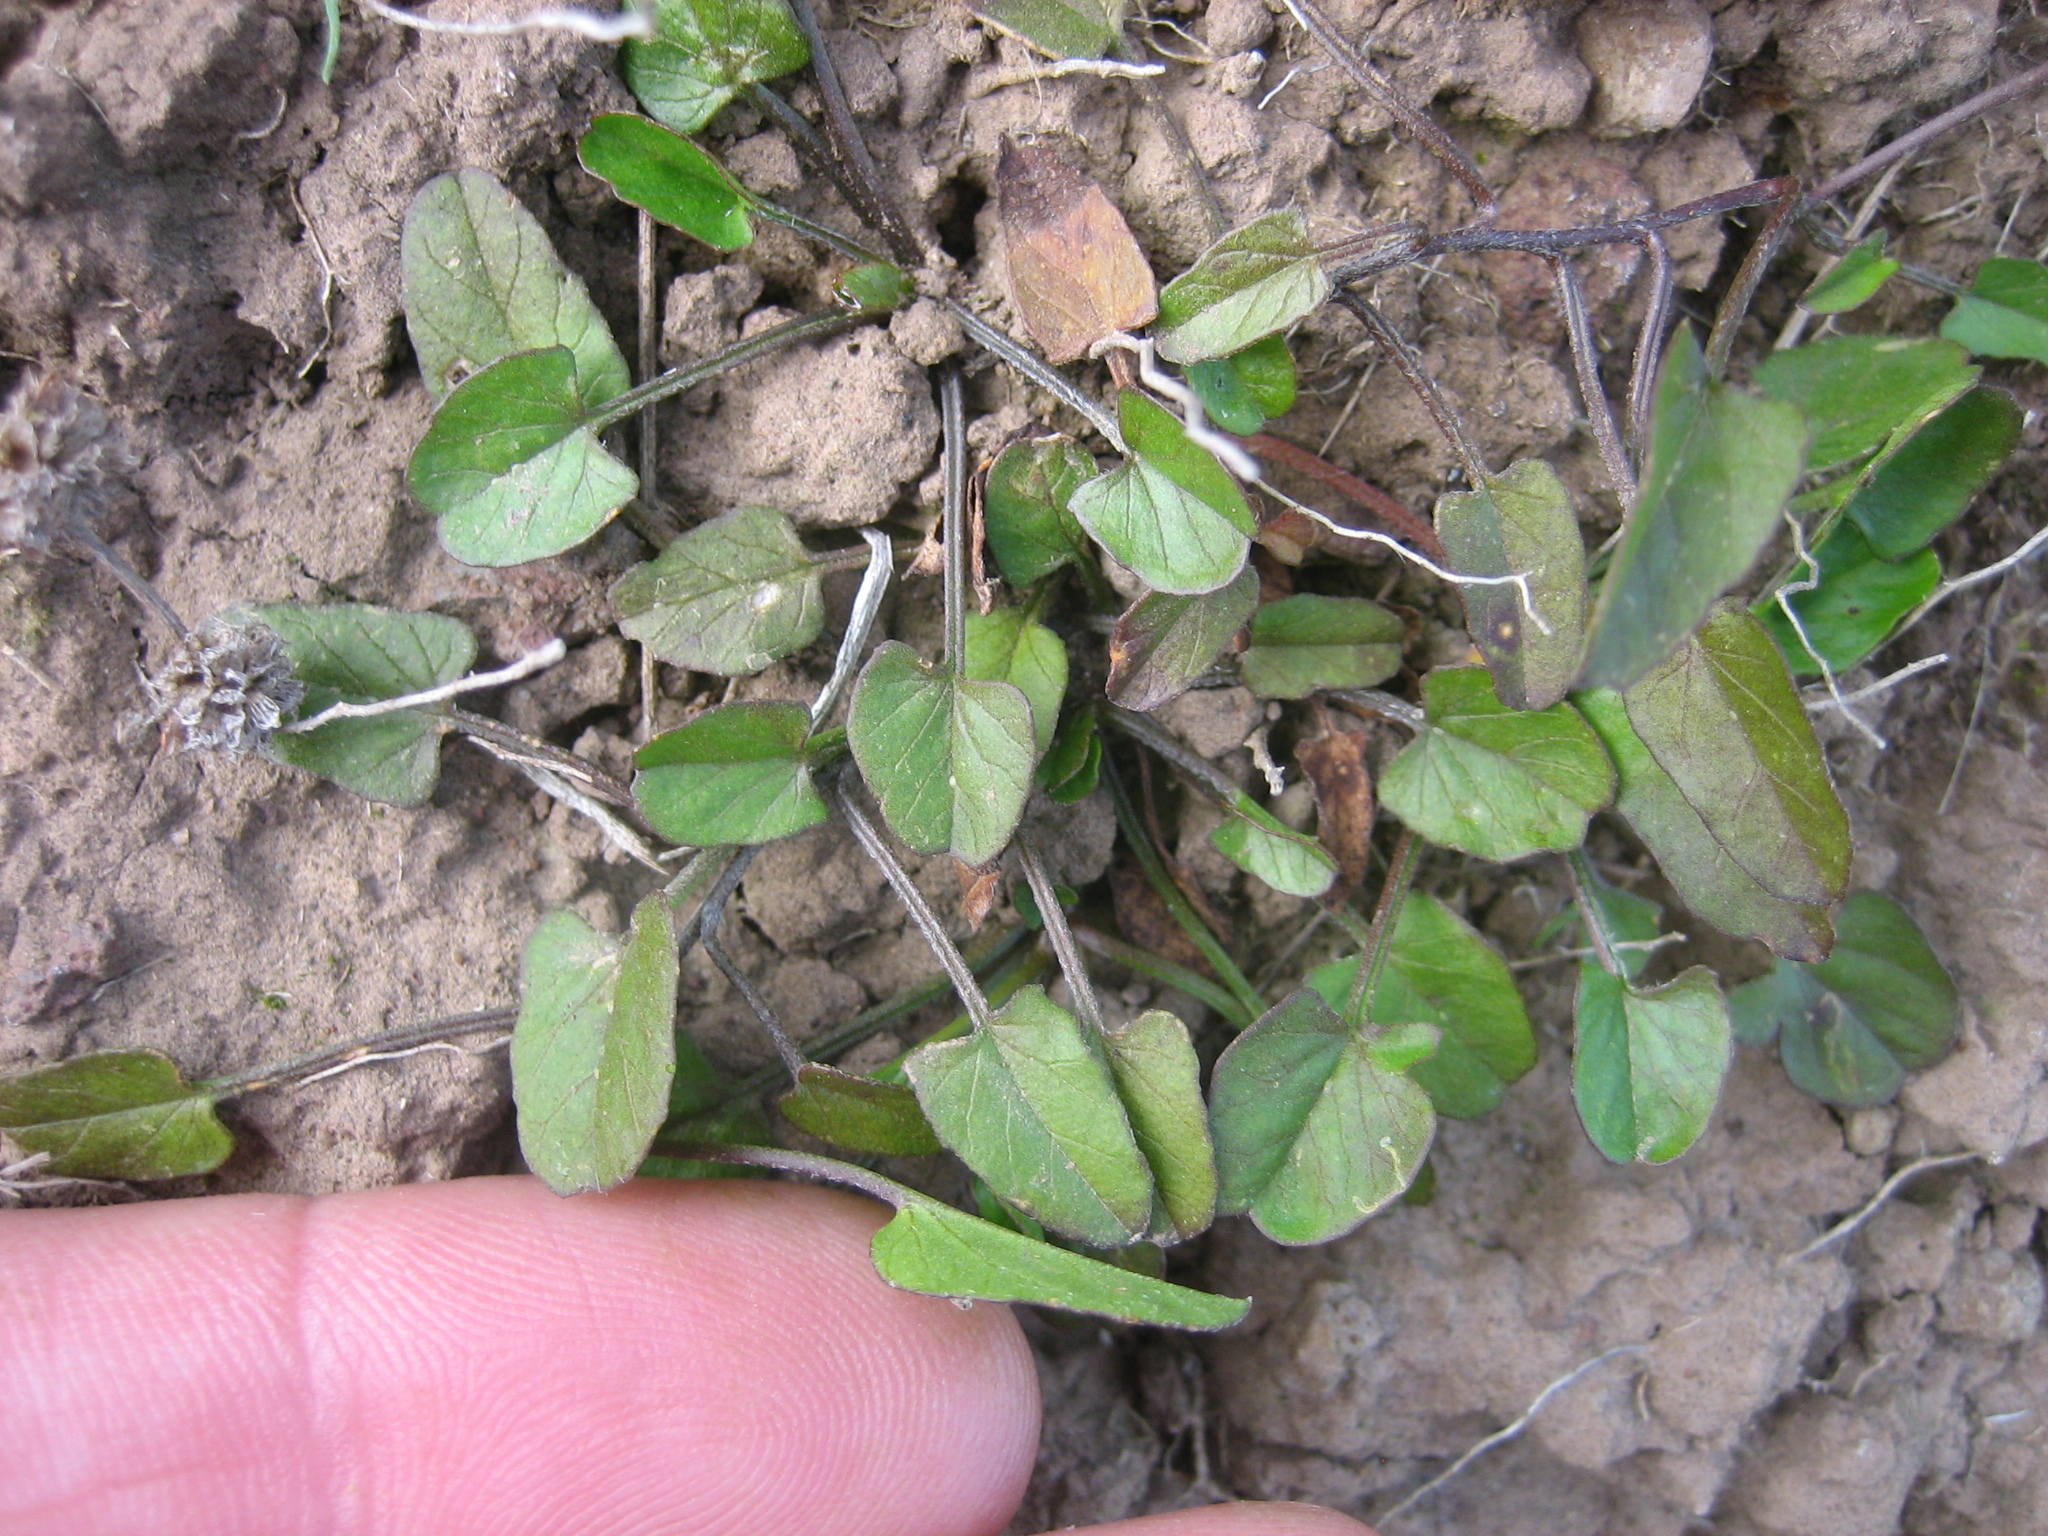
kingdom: Plantae
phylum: Tracheophyta
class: Magnoliopsida
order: Solanales
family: Convolvulaceae
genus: Convolvulus
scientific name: Convolvulus waitaha
